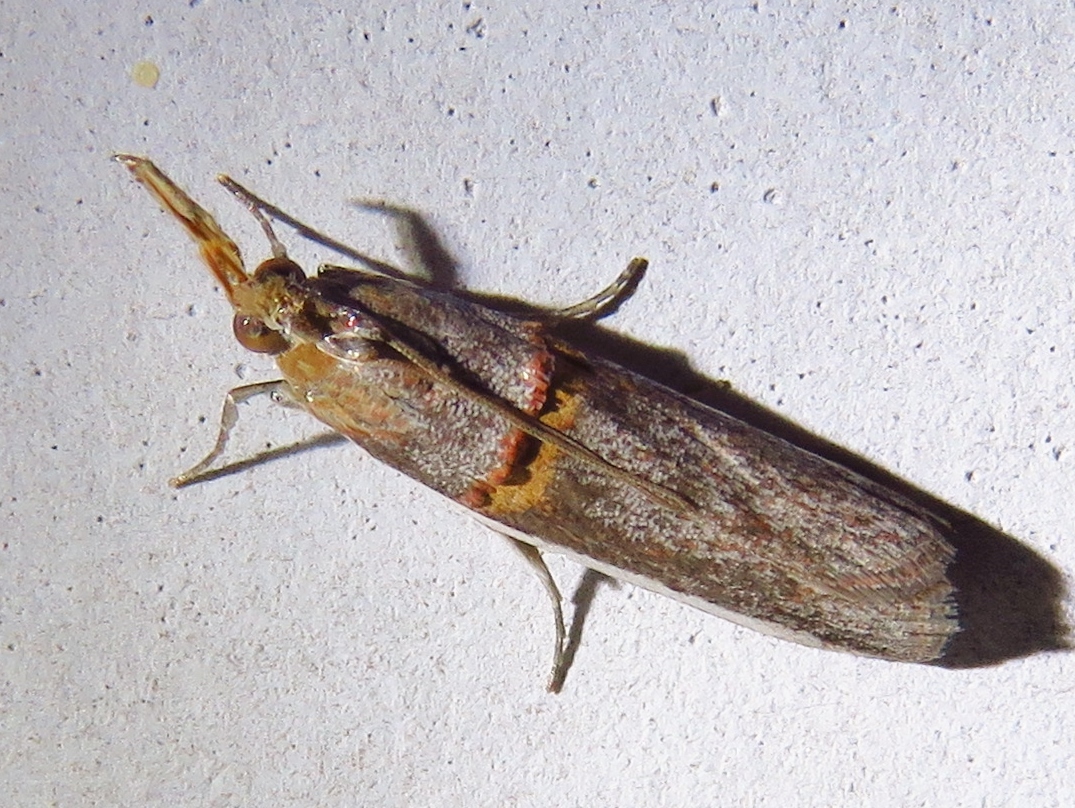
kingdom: Animalia
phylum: Arthropoda
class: Insecta
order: Lepidoptera
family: Pyralidae
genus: Etiella
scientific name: Etiella zinckenella
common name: Gold-banded etiella moth
